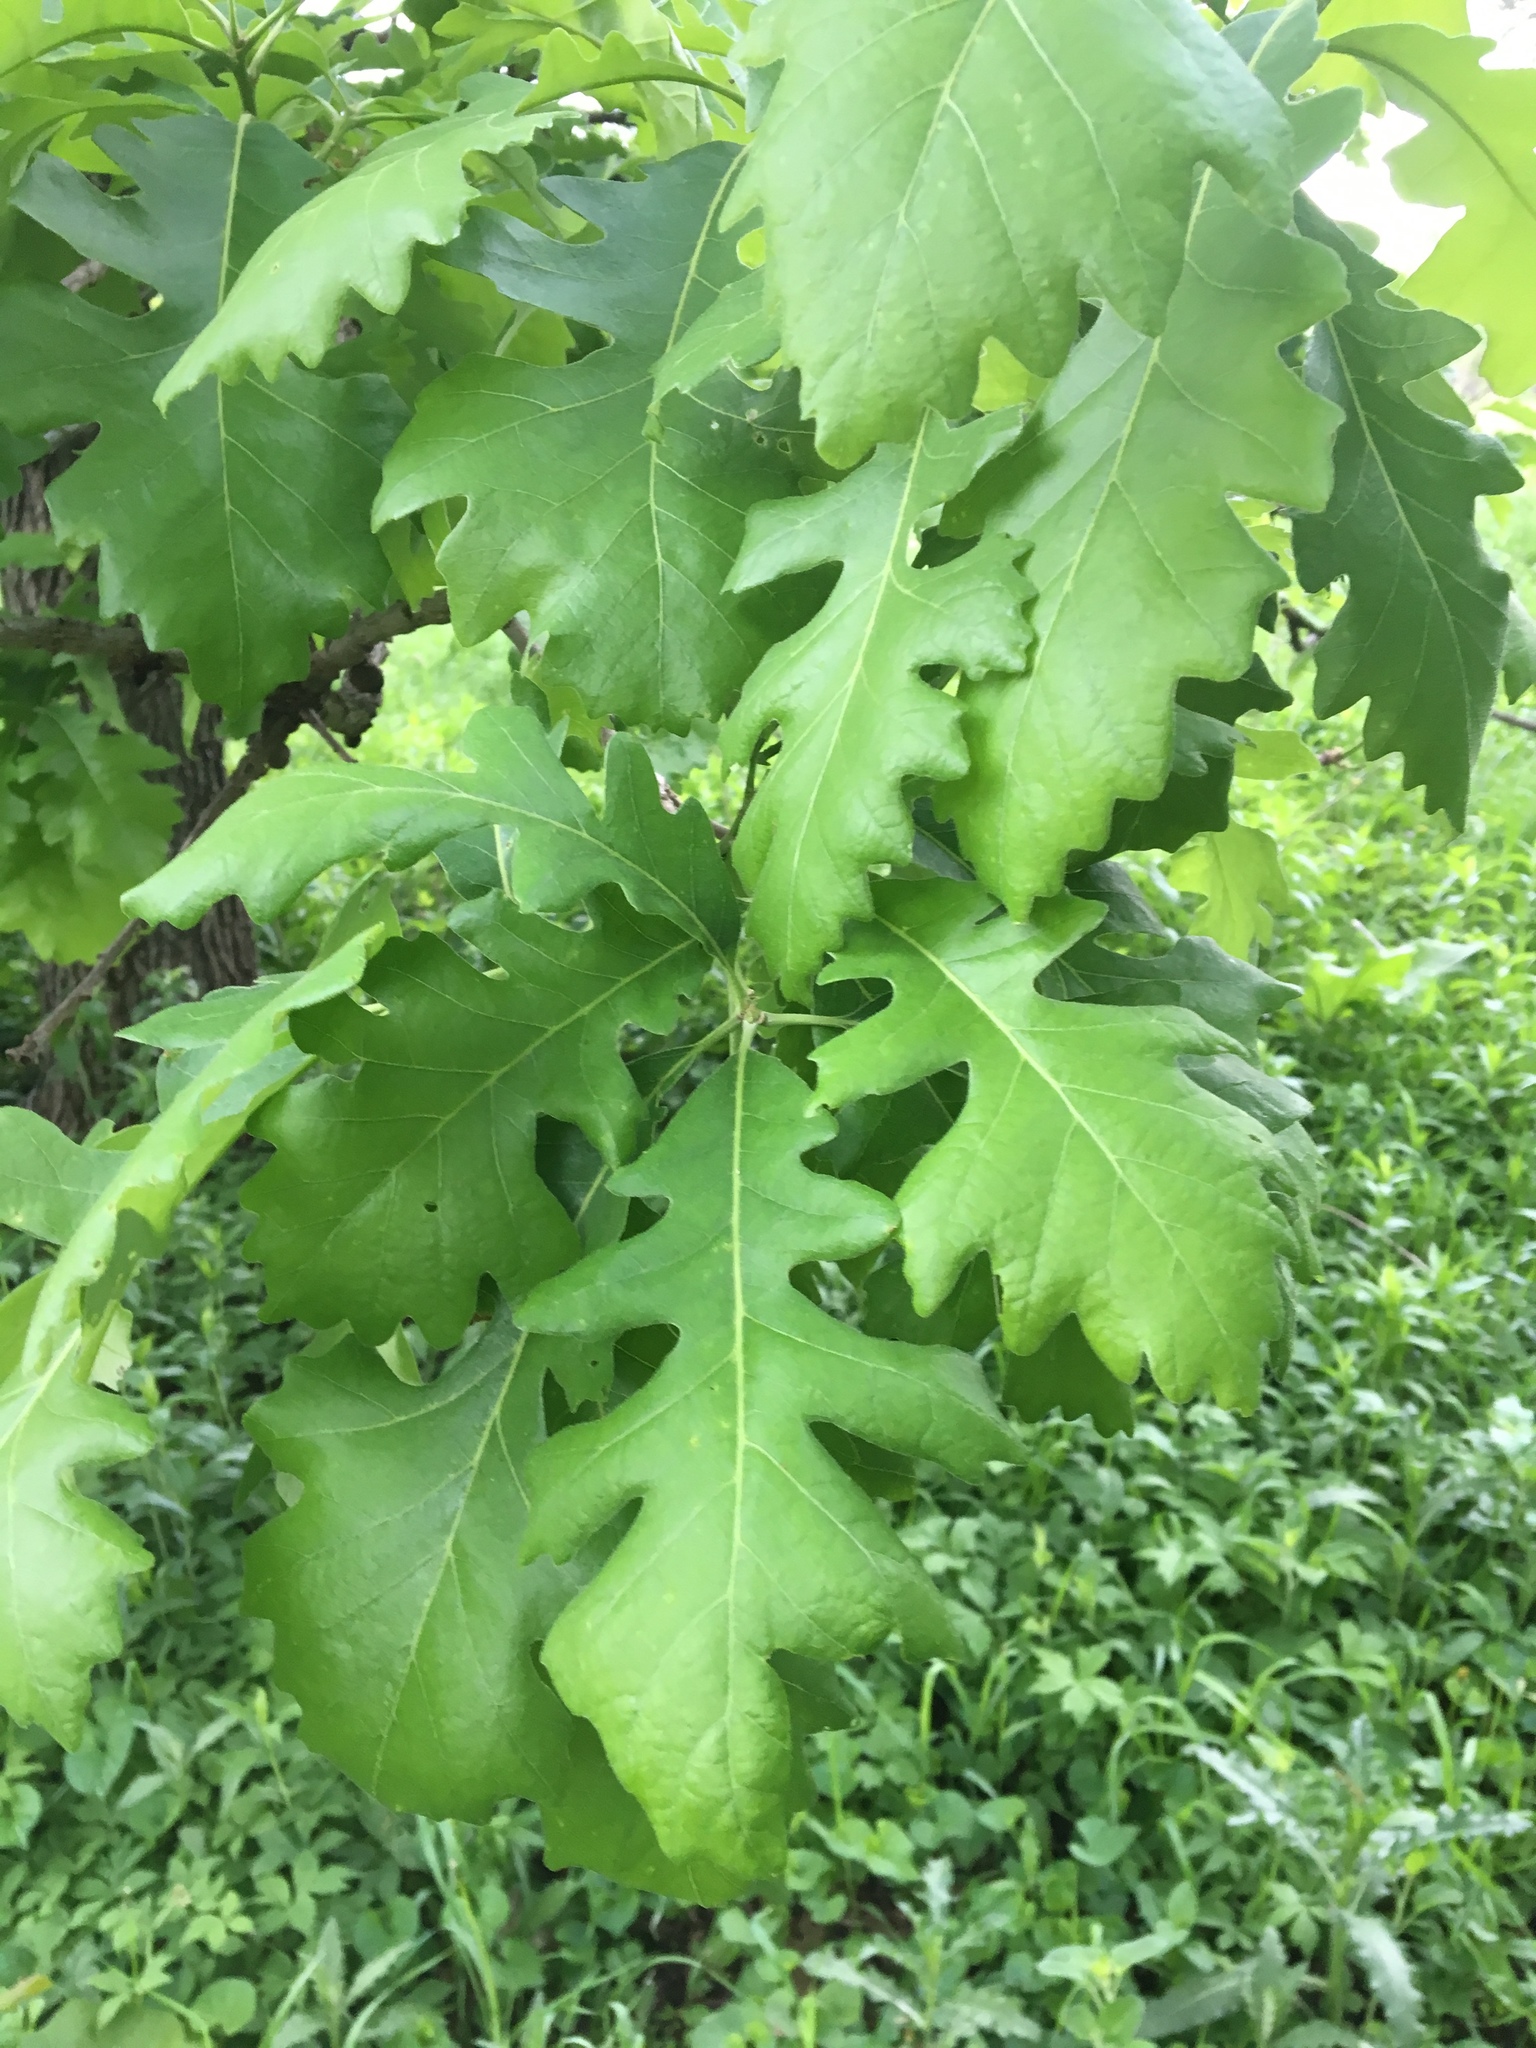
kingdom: Plantae
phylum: Tracheophyta
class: Magnoliopsida
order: Fagales
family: Fagaceae
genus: Quercus
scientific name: Quercus macrocarpa
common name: Bur oak
